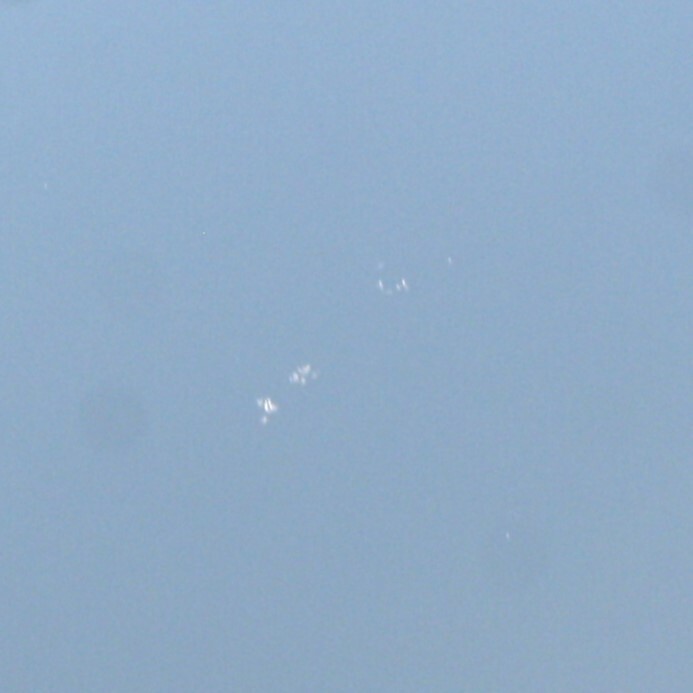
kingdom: Animalia
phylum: Chordata
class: Aves
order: Phoenicopteriformes
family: Phoenicopteridae
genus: Phoenicopterus
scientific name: Phoenicopterus roseus
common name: Greater flamingo
